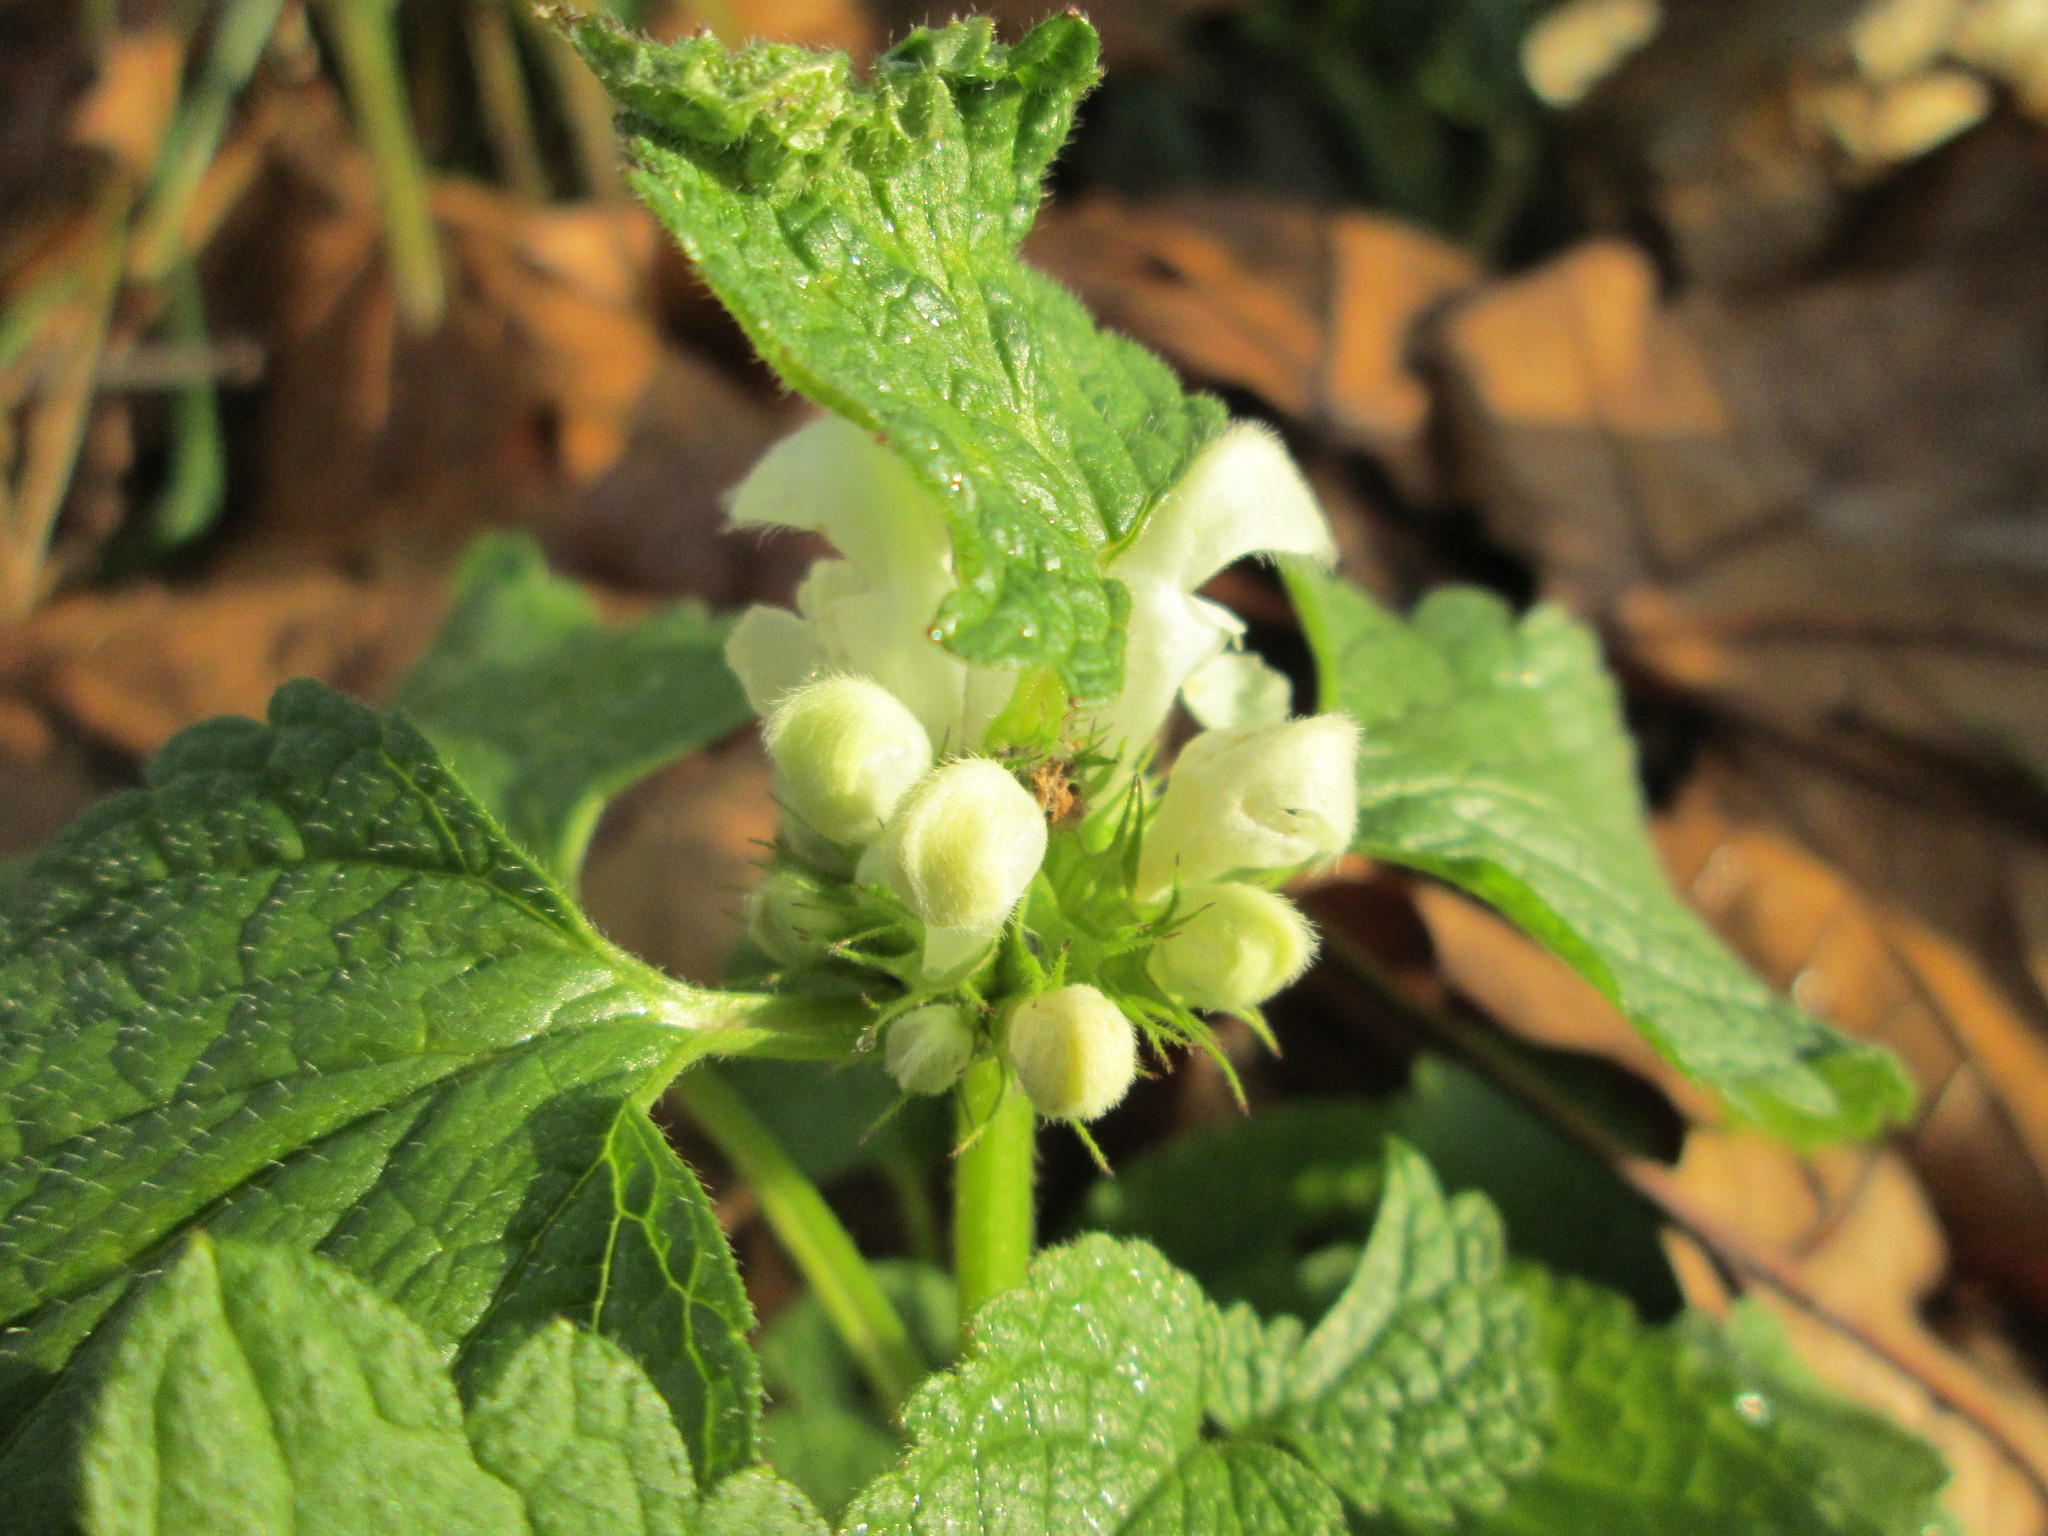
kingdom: Plantae
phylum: Tracheophyta
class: Magnoliopsida
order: Lamiales
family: Lamiaceae
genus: Lamium
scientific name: Lamium album
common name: White dead-nettle
